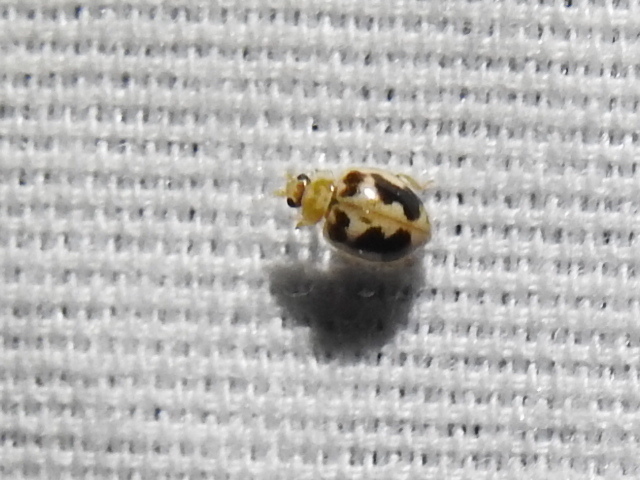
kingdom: Animalia
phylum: Arthropoda
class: Insecta
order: Coleoptera
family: Coccinellidae
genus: Psyllobora
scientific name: Psyllobora renifer
